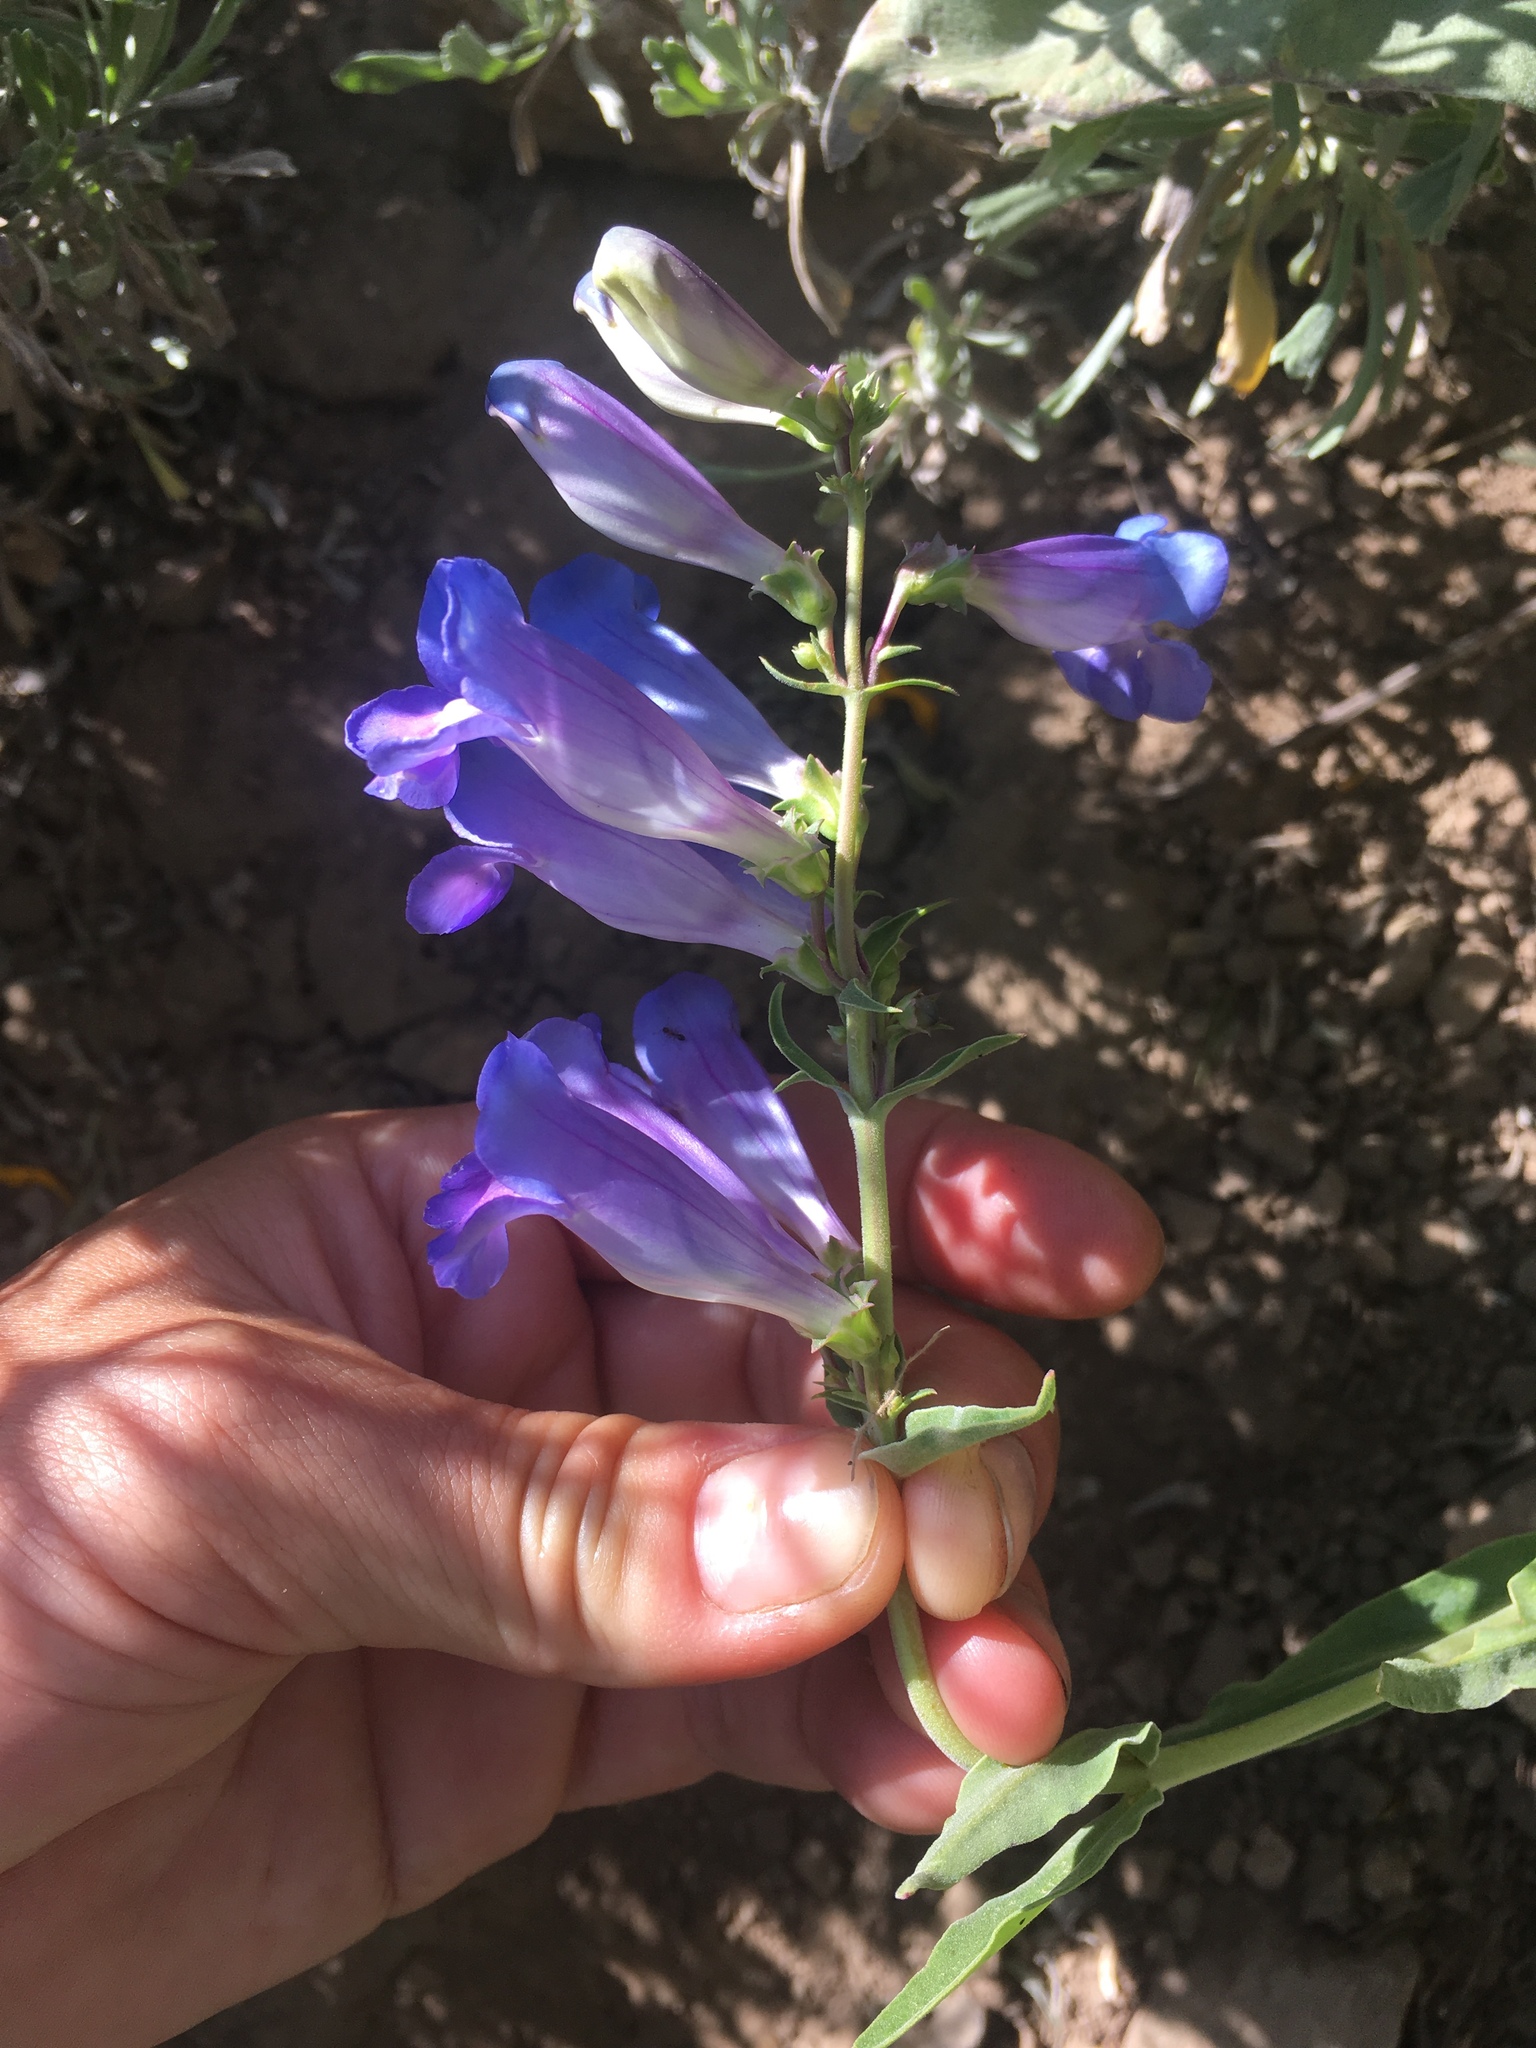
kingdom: Plantae
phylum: Tracheophyta
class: Magnoliopsida
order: Lamiales
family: Plantaginaceae
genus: Penstemon
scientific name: Penstemon speciosus
